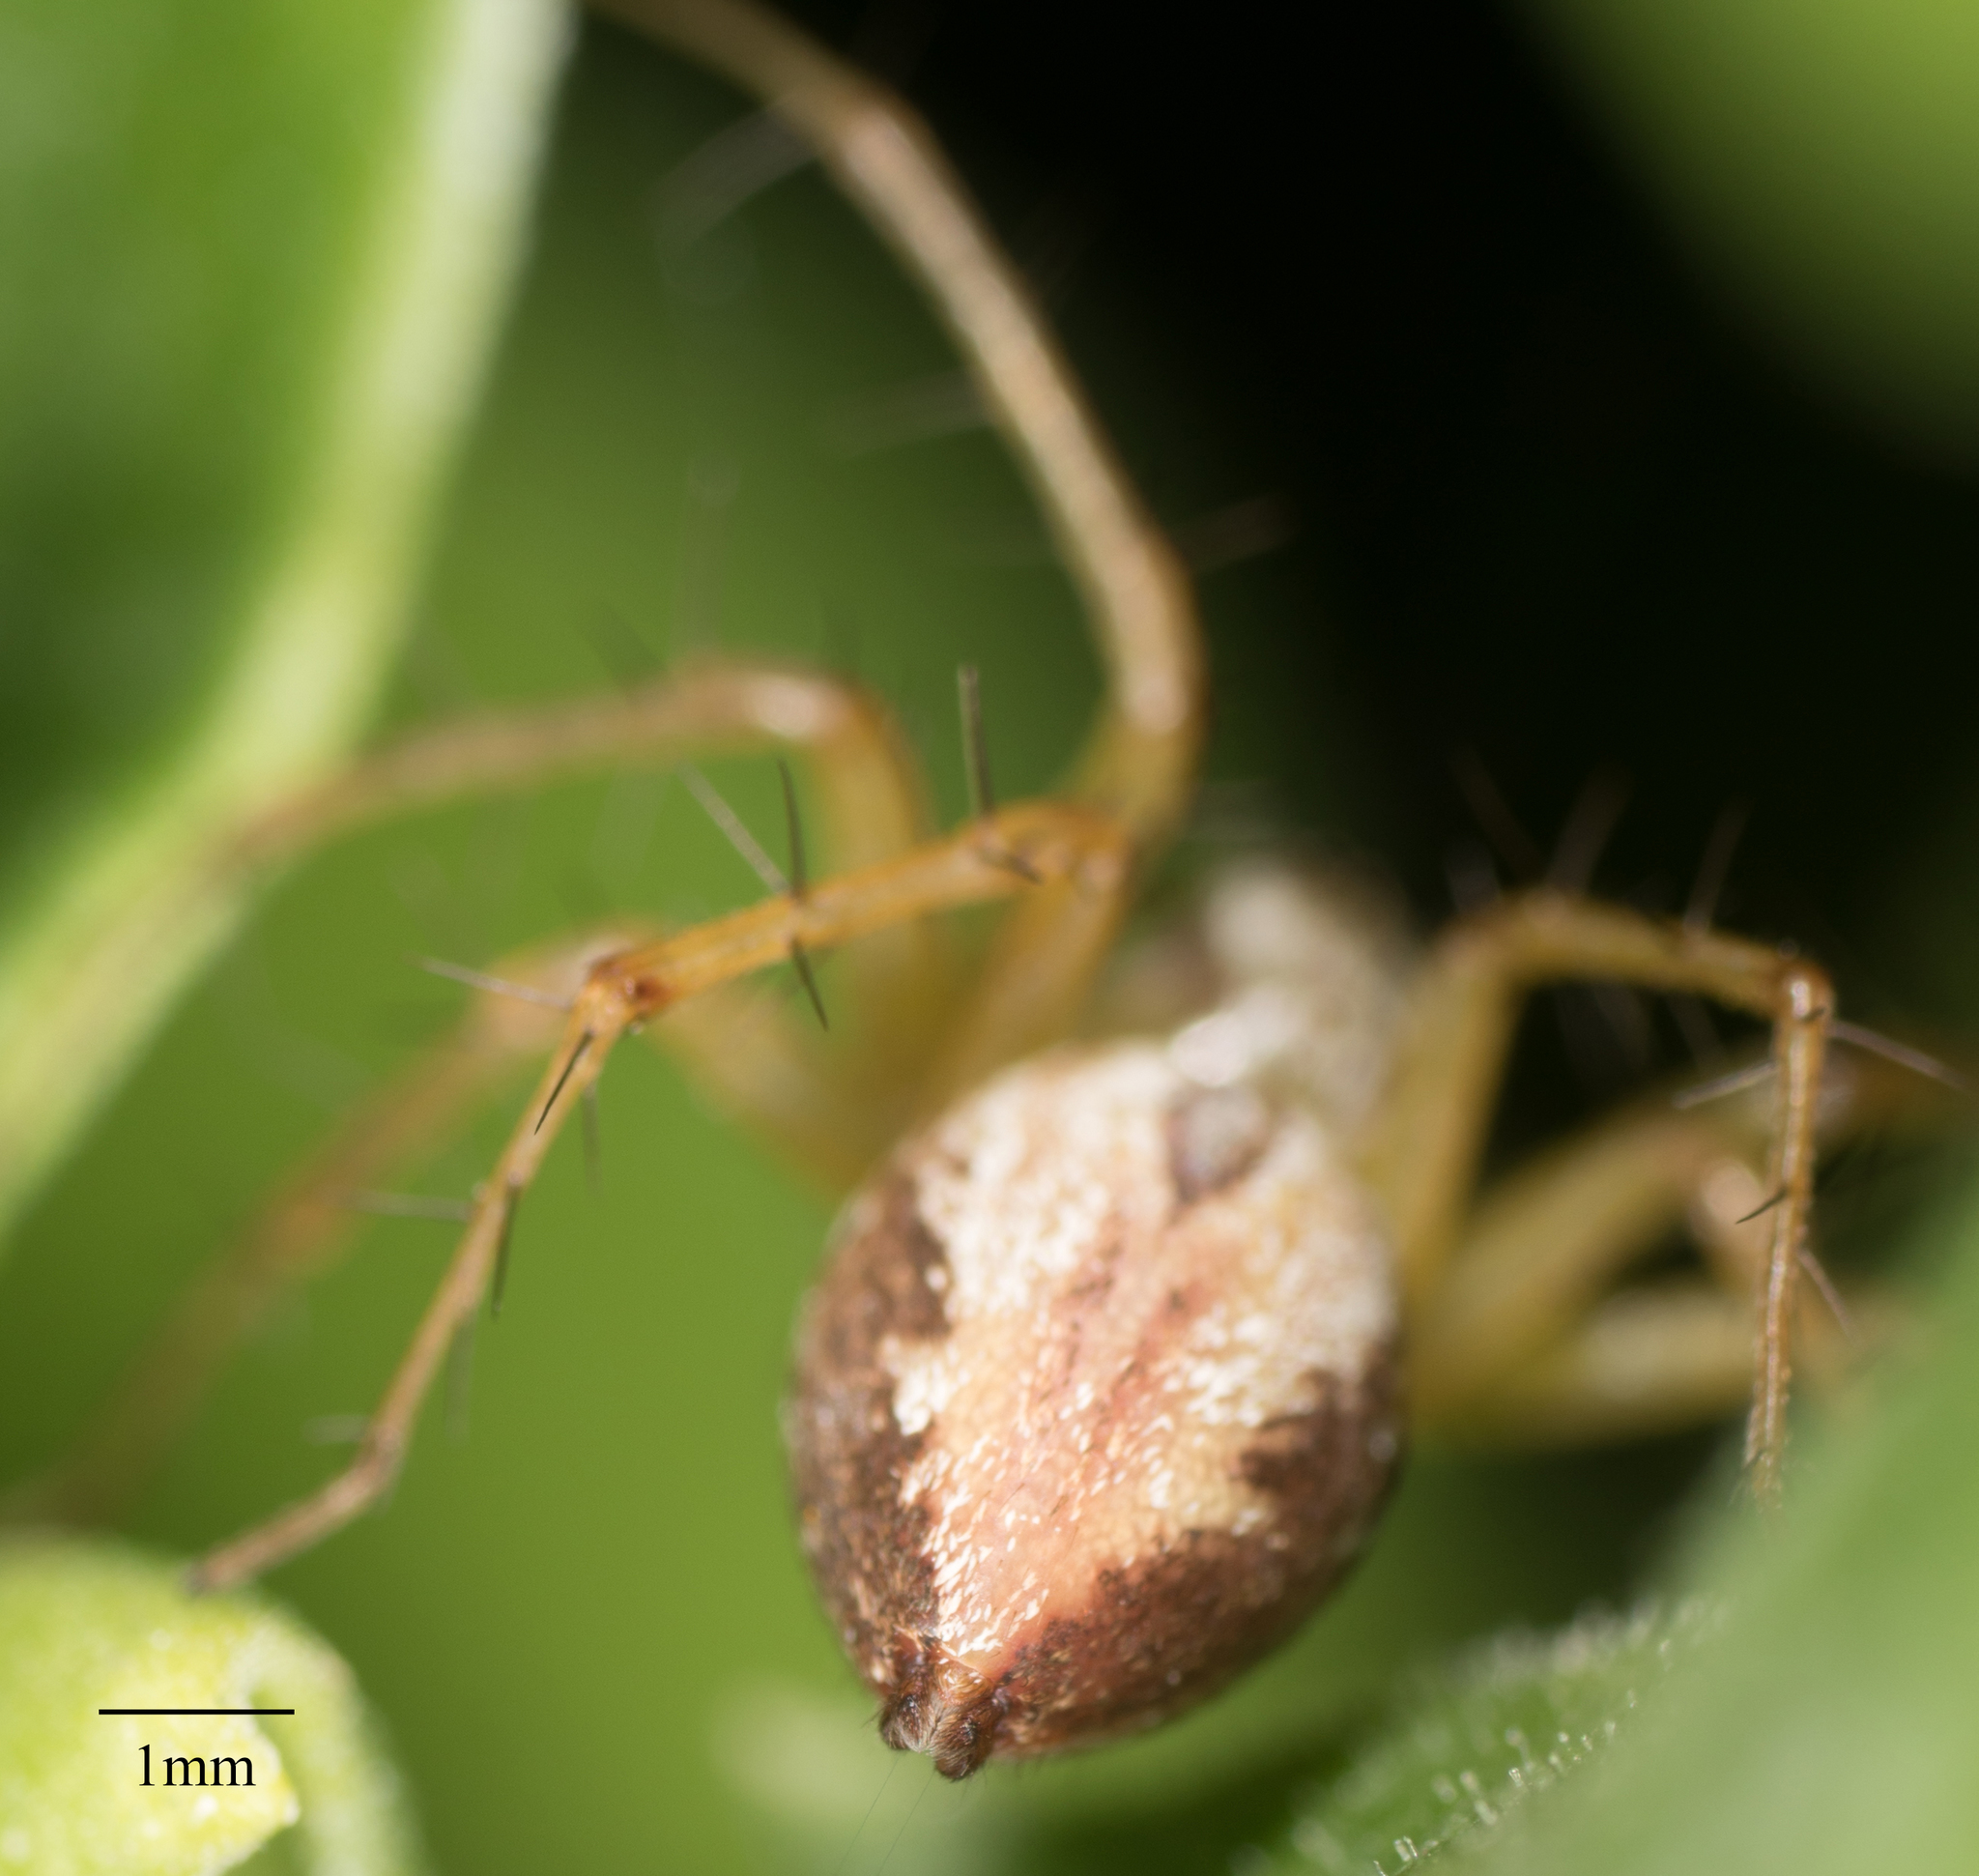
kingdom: Animalia
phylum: Arthropoda
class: Arachnida
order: Araneae
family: Oxyopidae
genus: Oxyopes
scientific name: Oxyopes salticus
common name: Lynx spiders
